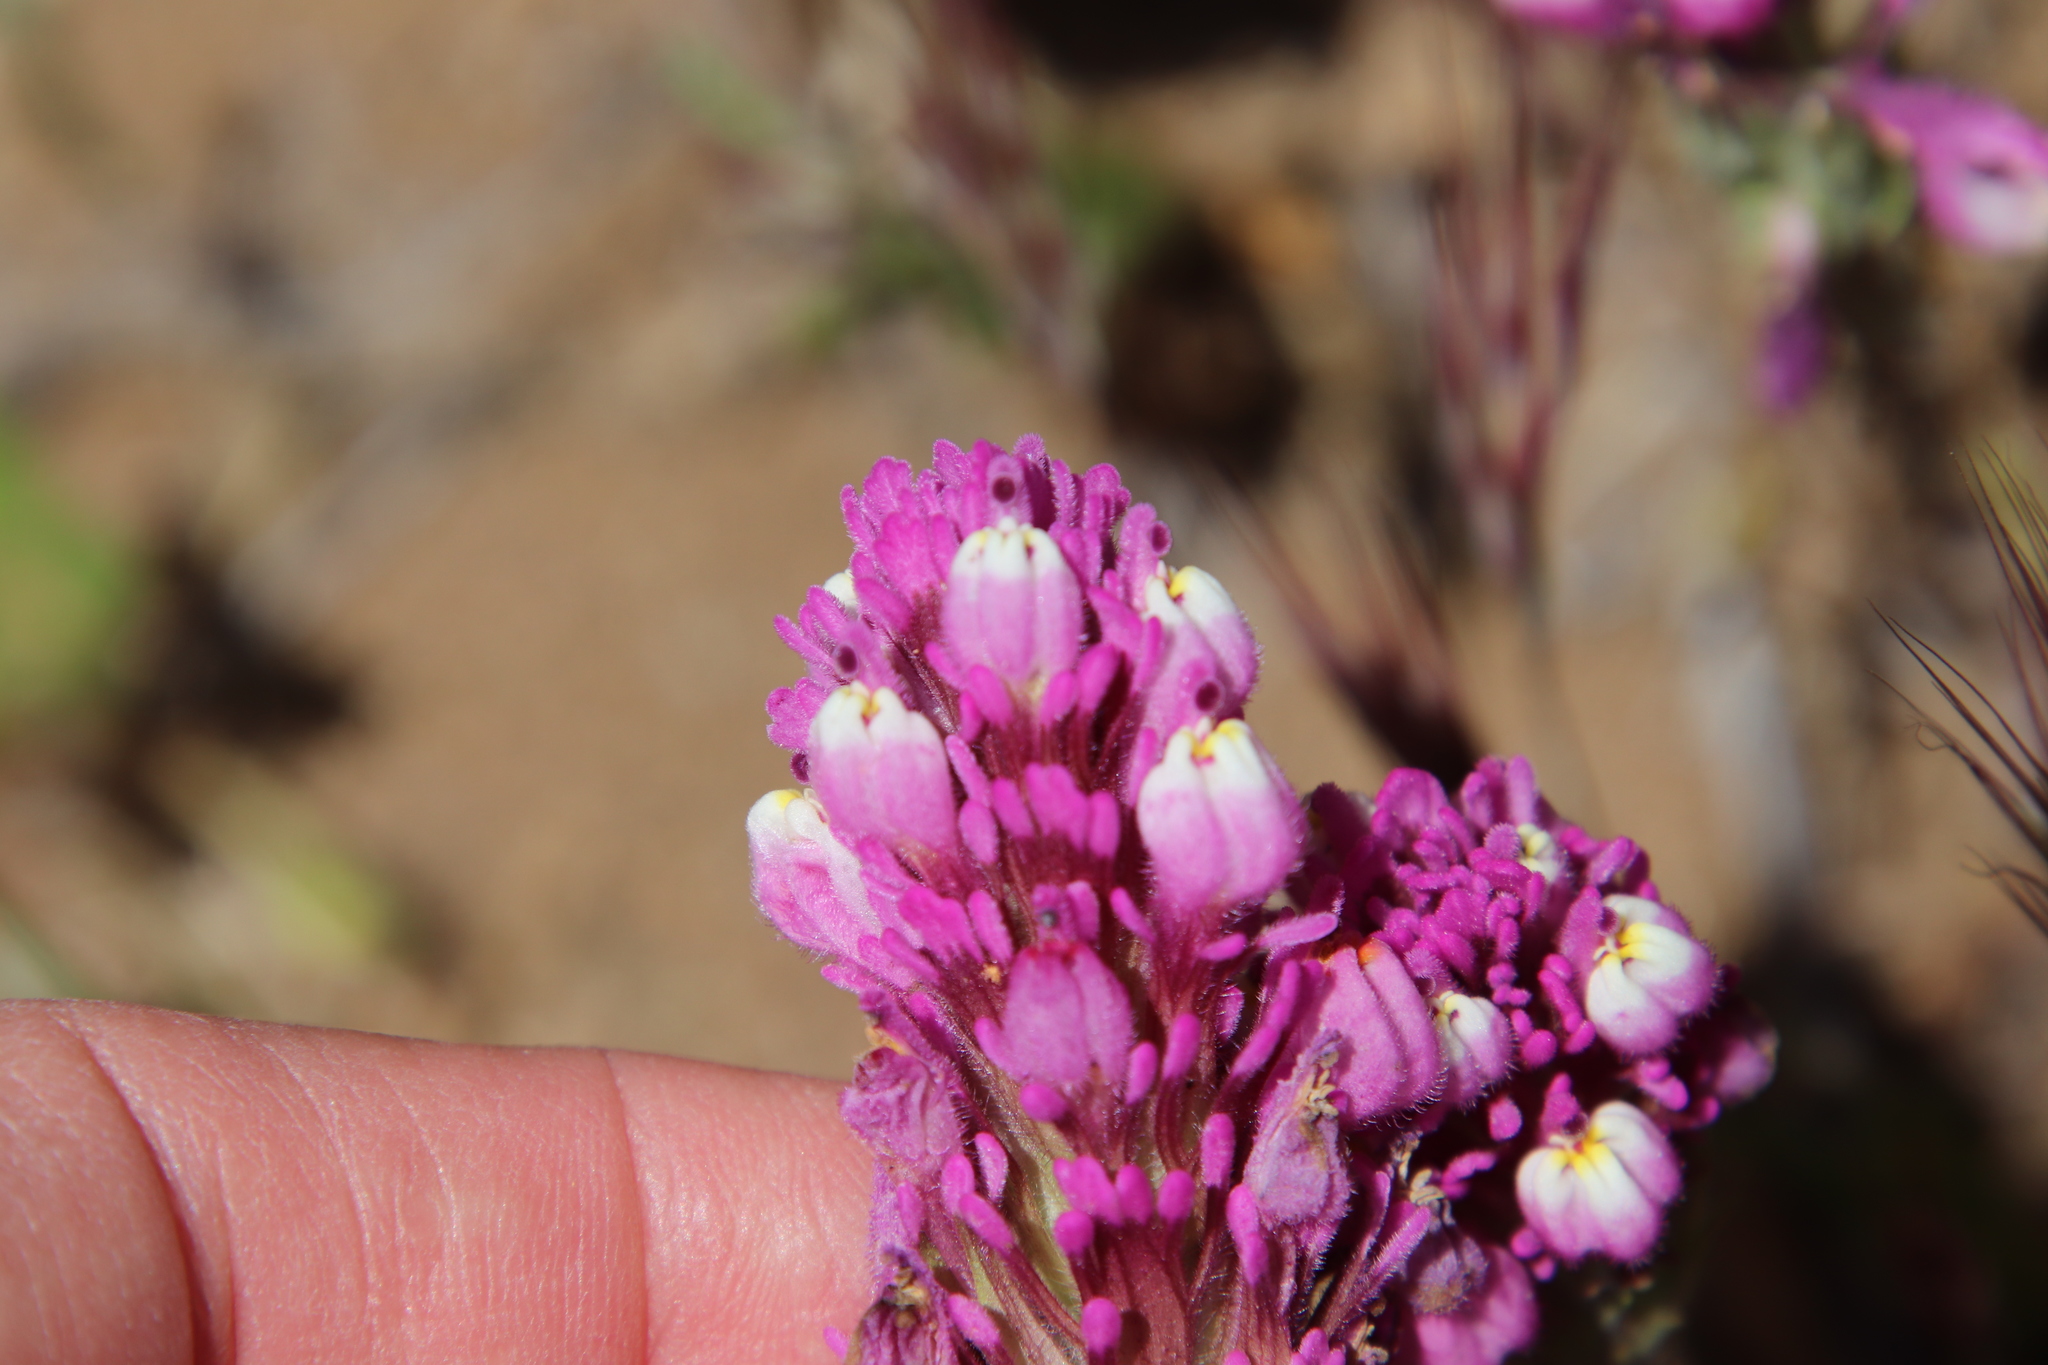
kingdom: Plantae
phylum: Tracheophyta
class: Magnoliopsida
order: Lamiales
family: Orobanchaceae
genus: Castilleja
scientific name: Castilleja exserta
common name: Purple owl-clover
